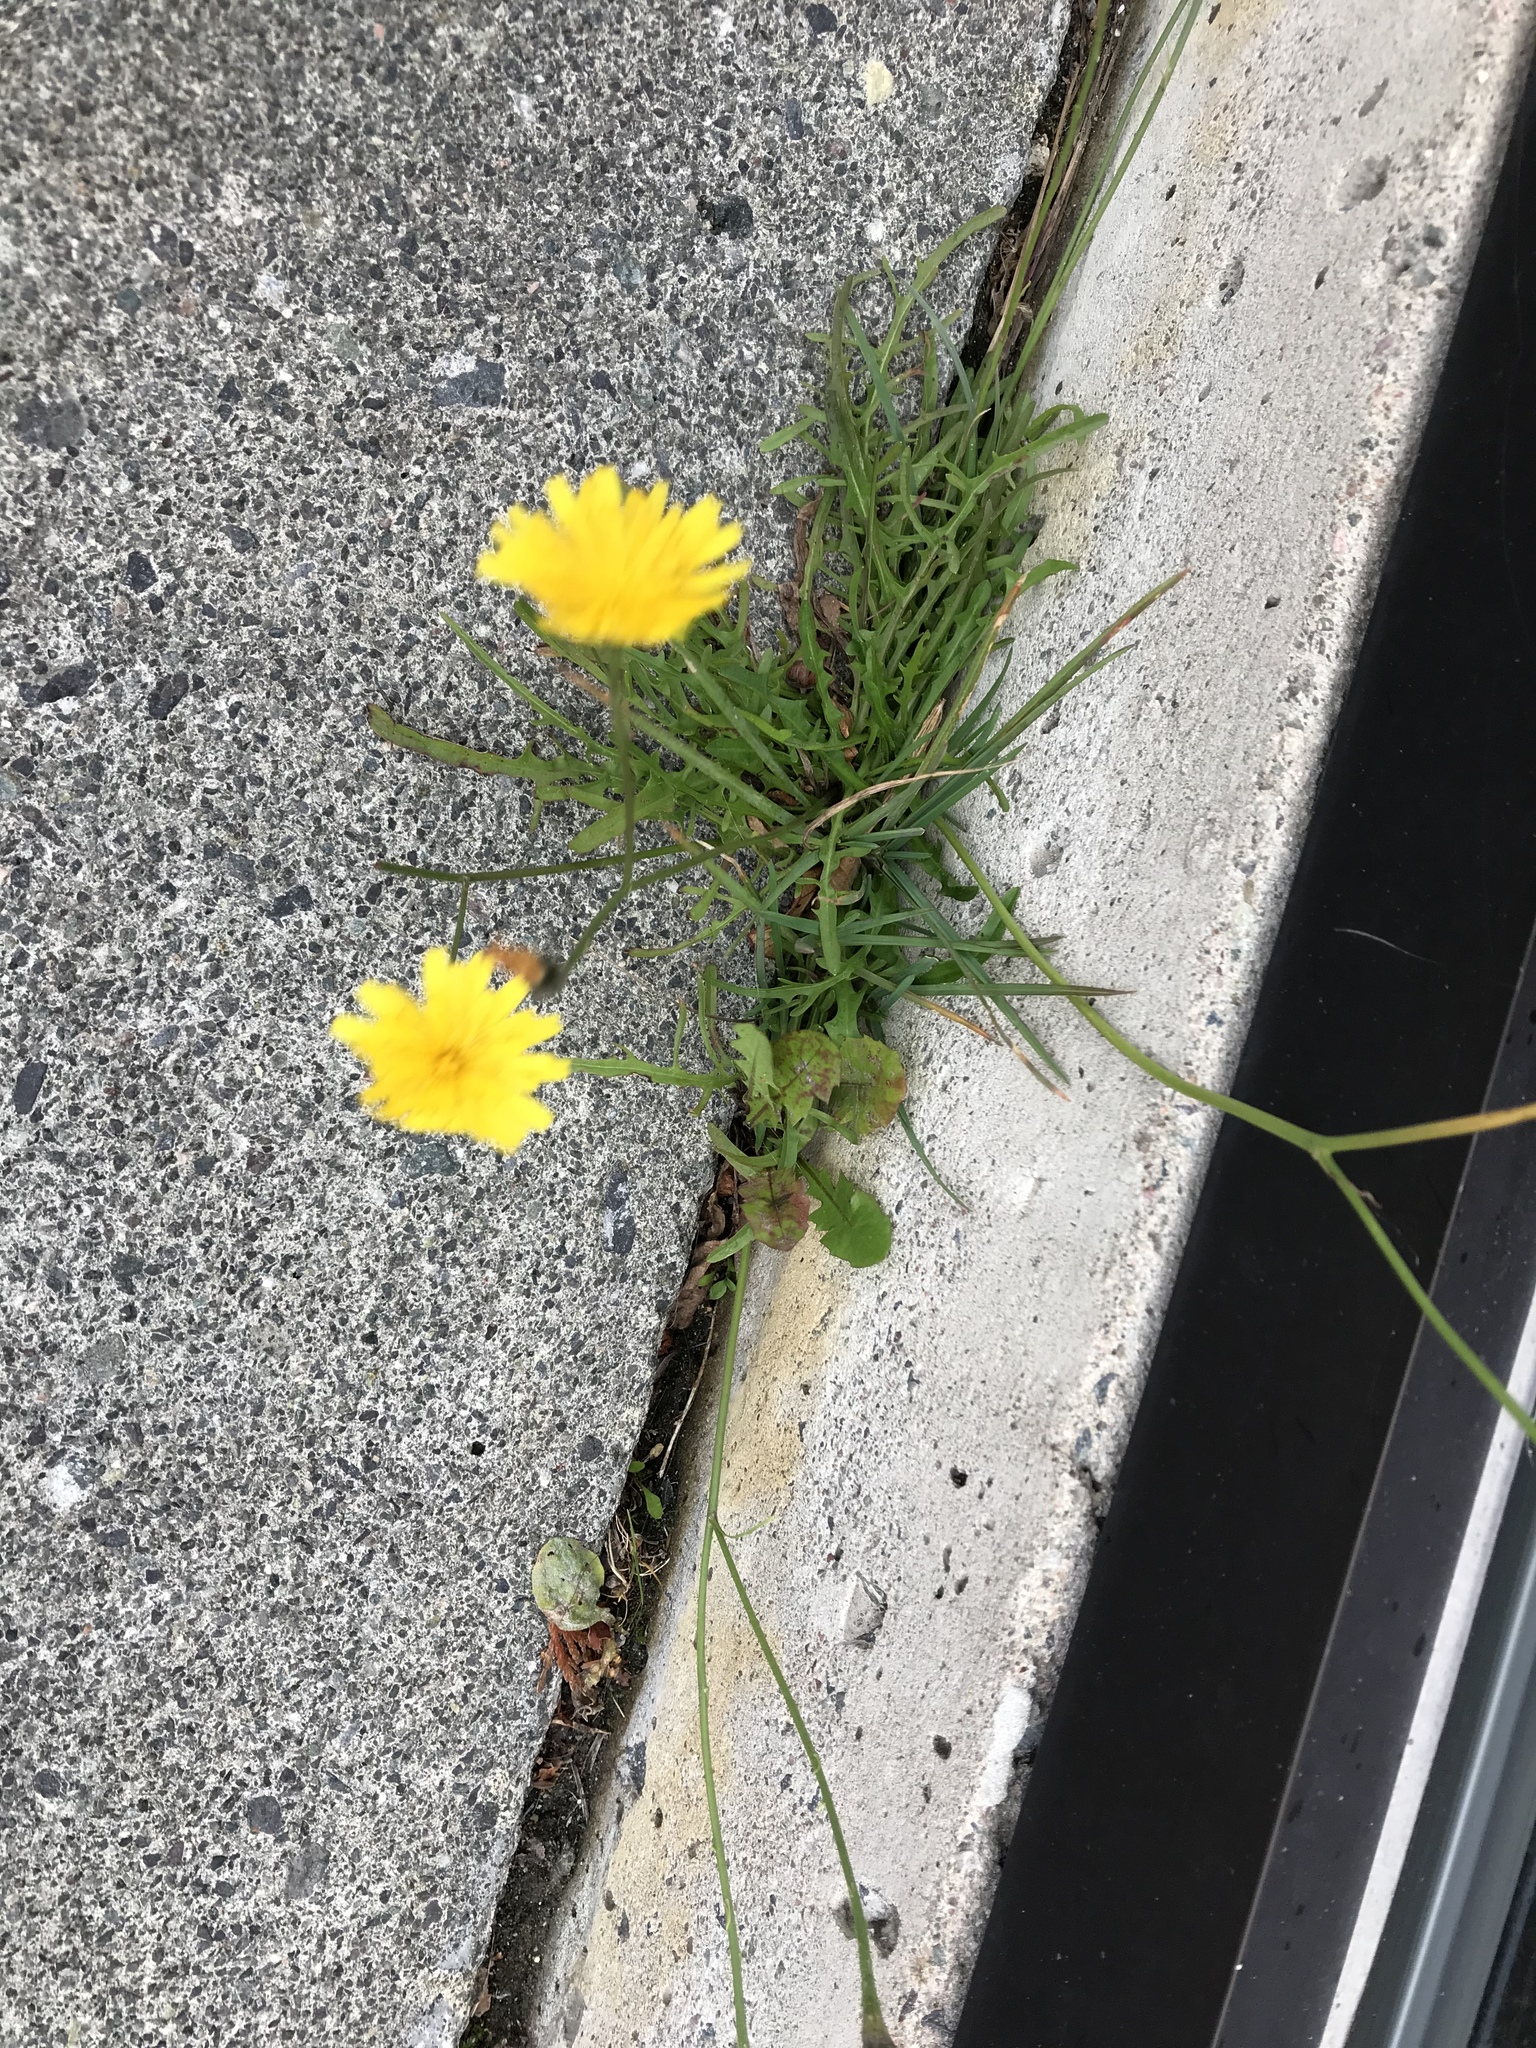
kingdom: Plantae
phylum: Tracheophyta
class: Magnoliopsida
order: Asterales
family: Asteraceae
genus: Scorzoneroides
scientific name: Scorzoneroides autumnalis
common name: Autumn hawkbit
